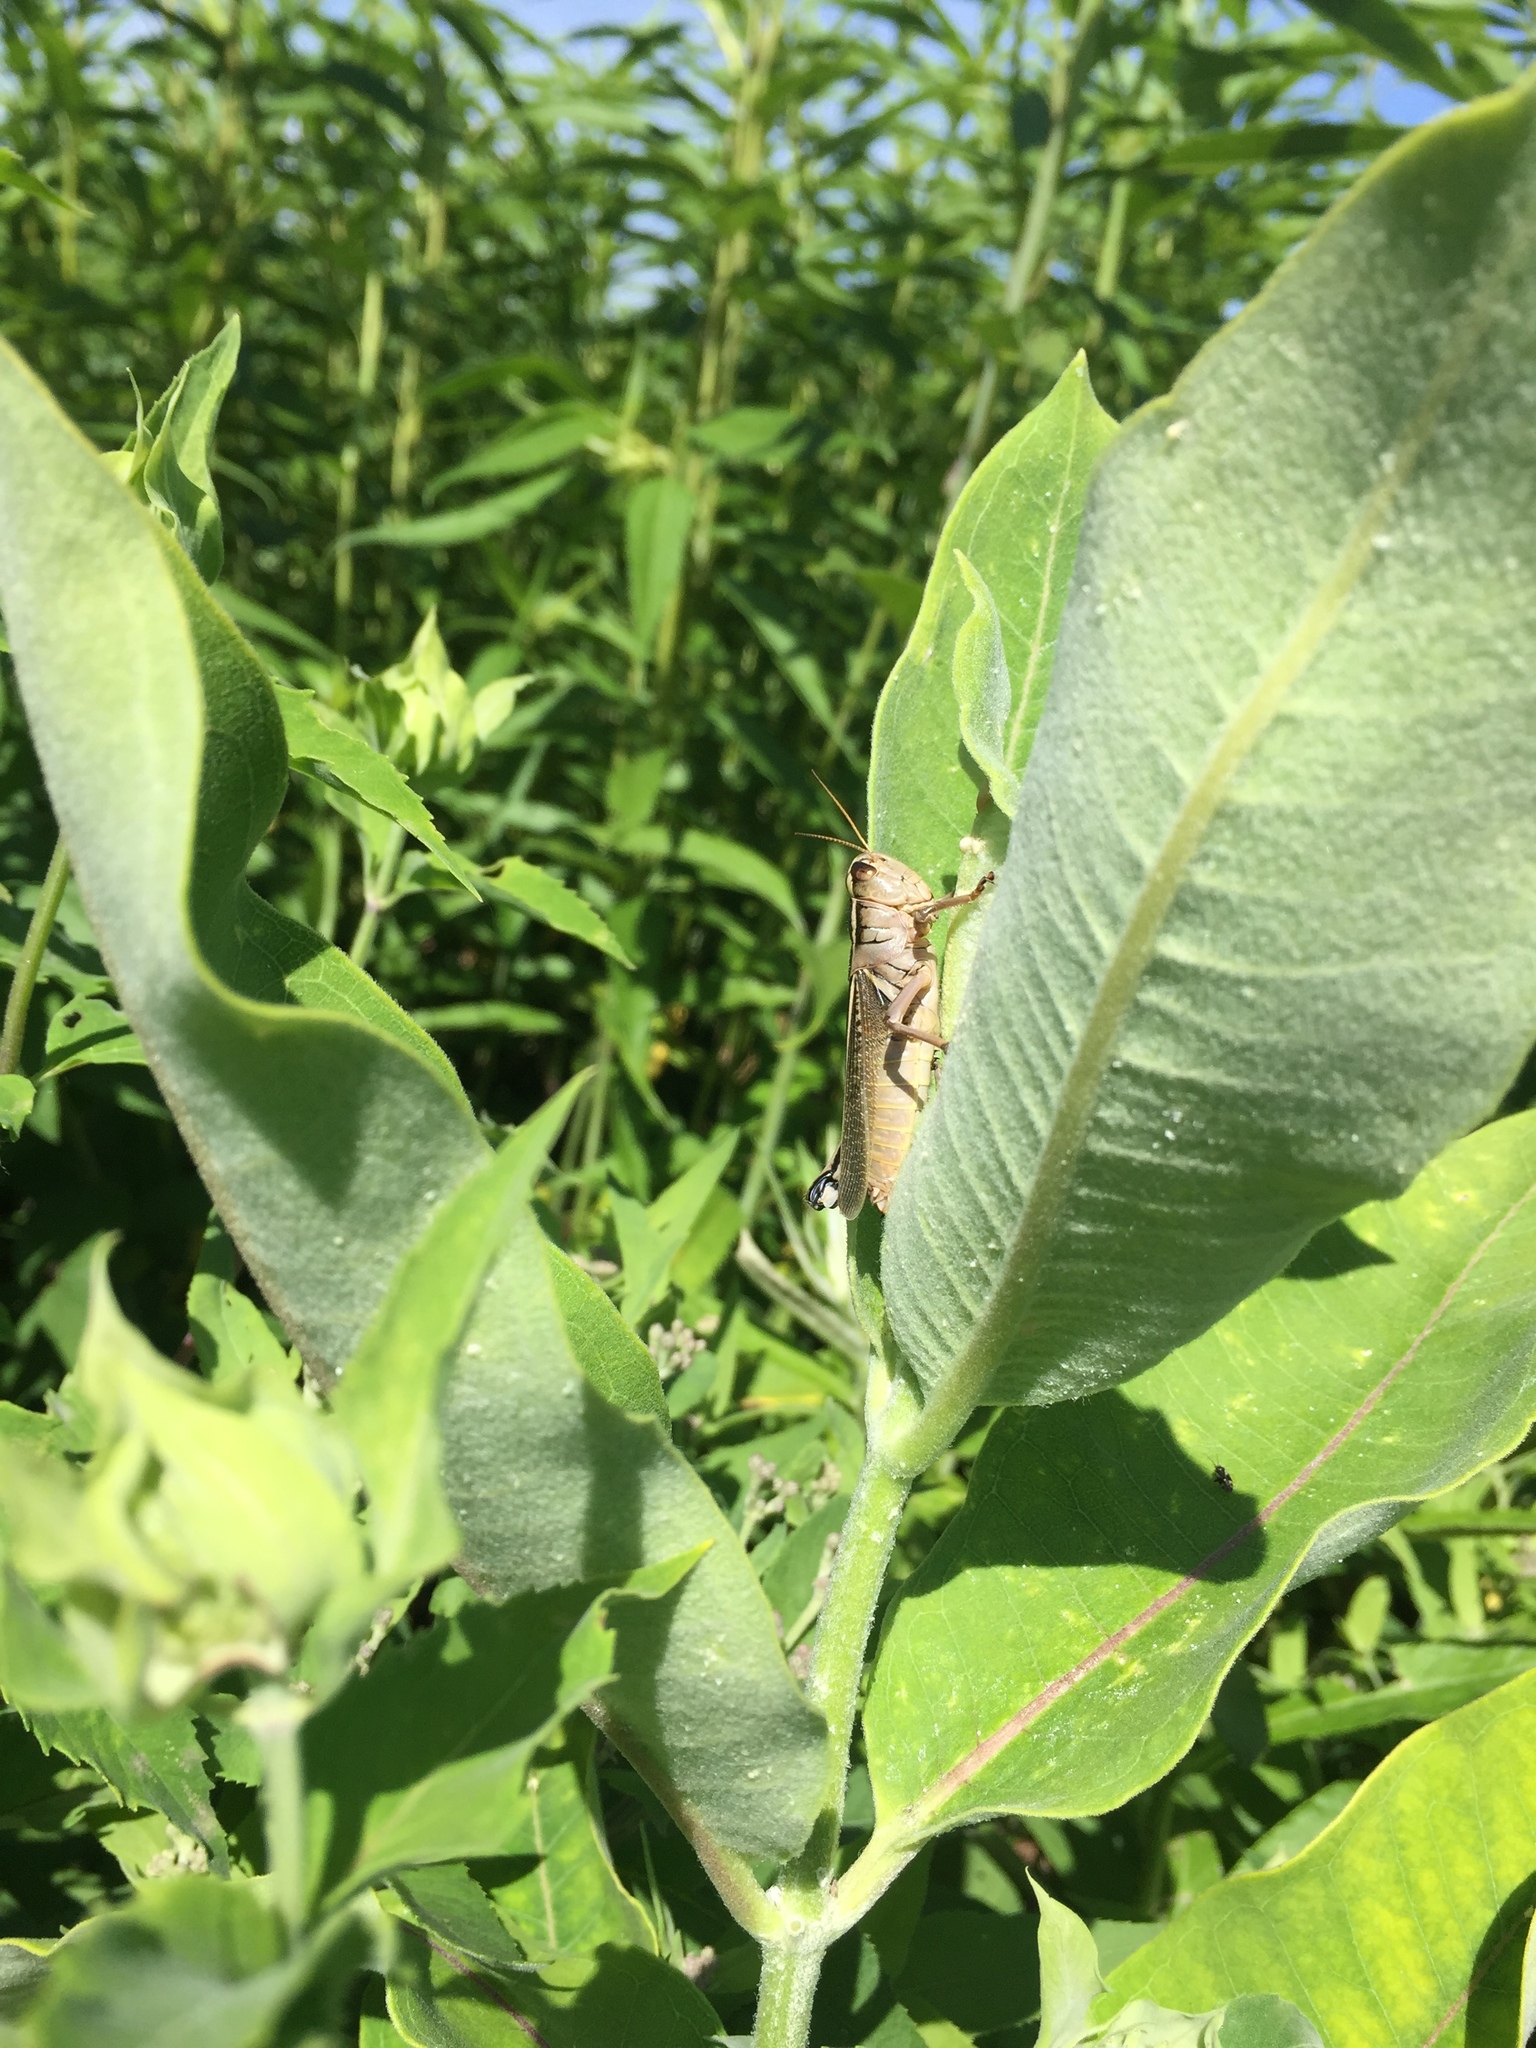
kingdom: Animalia
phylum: Arthropoda
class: Insecta
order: Orthoptera
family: Acrididae
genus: Melanoplus
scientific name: Melanoplus bivittatus
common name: Two-striped grasshopper
